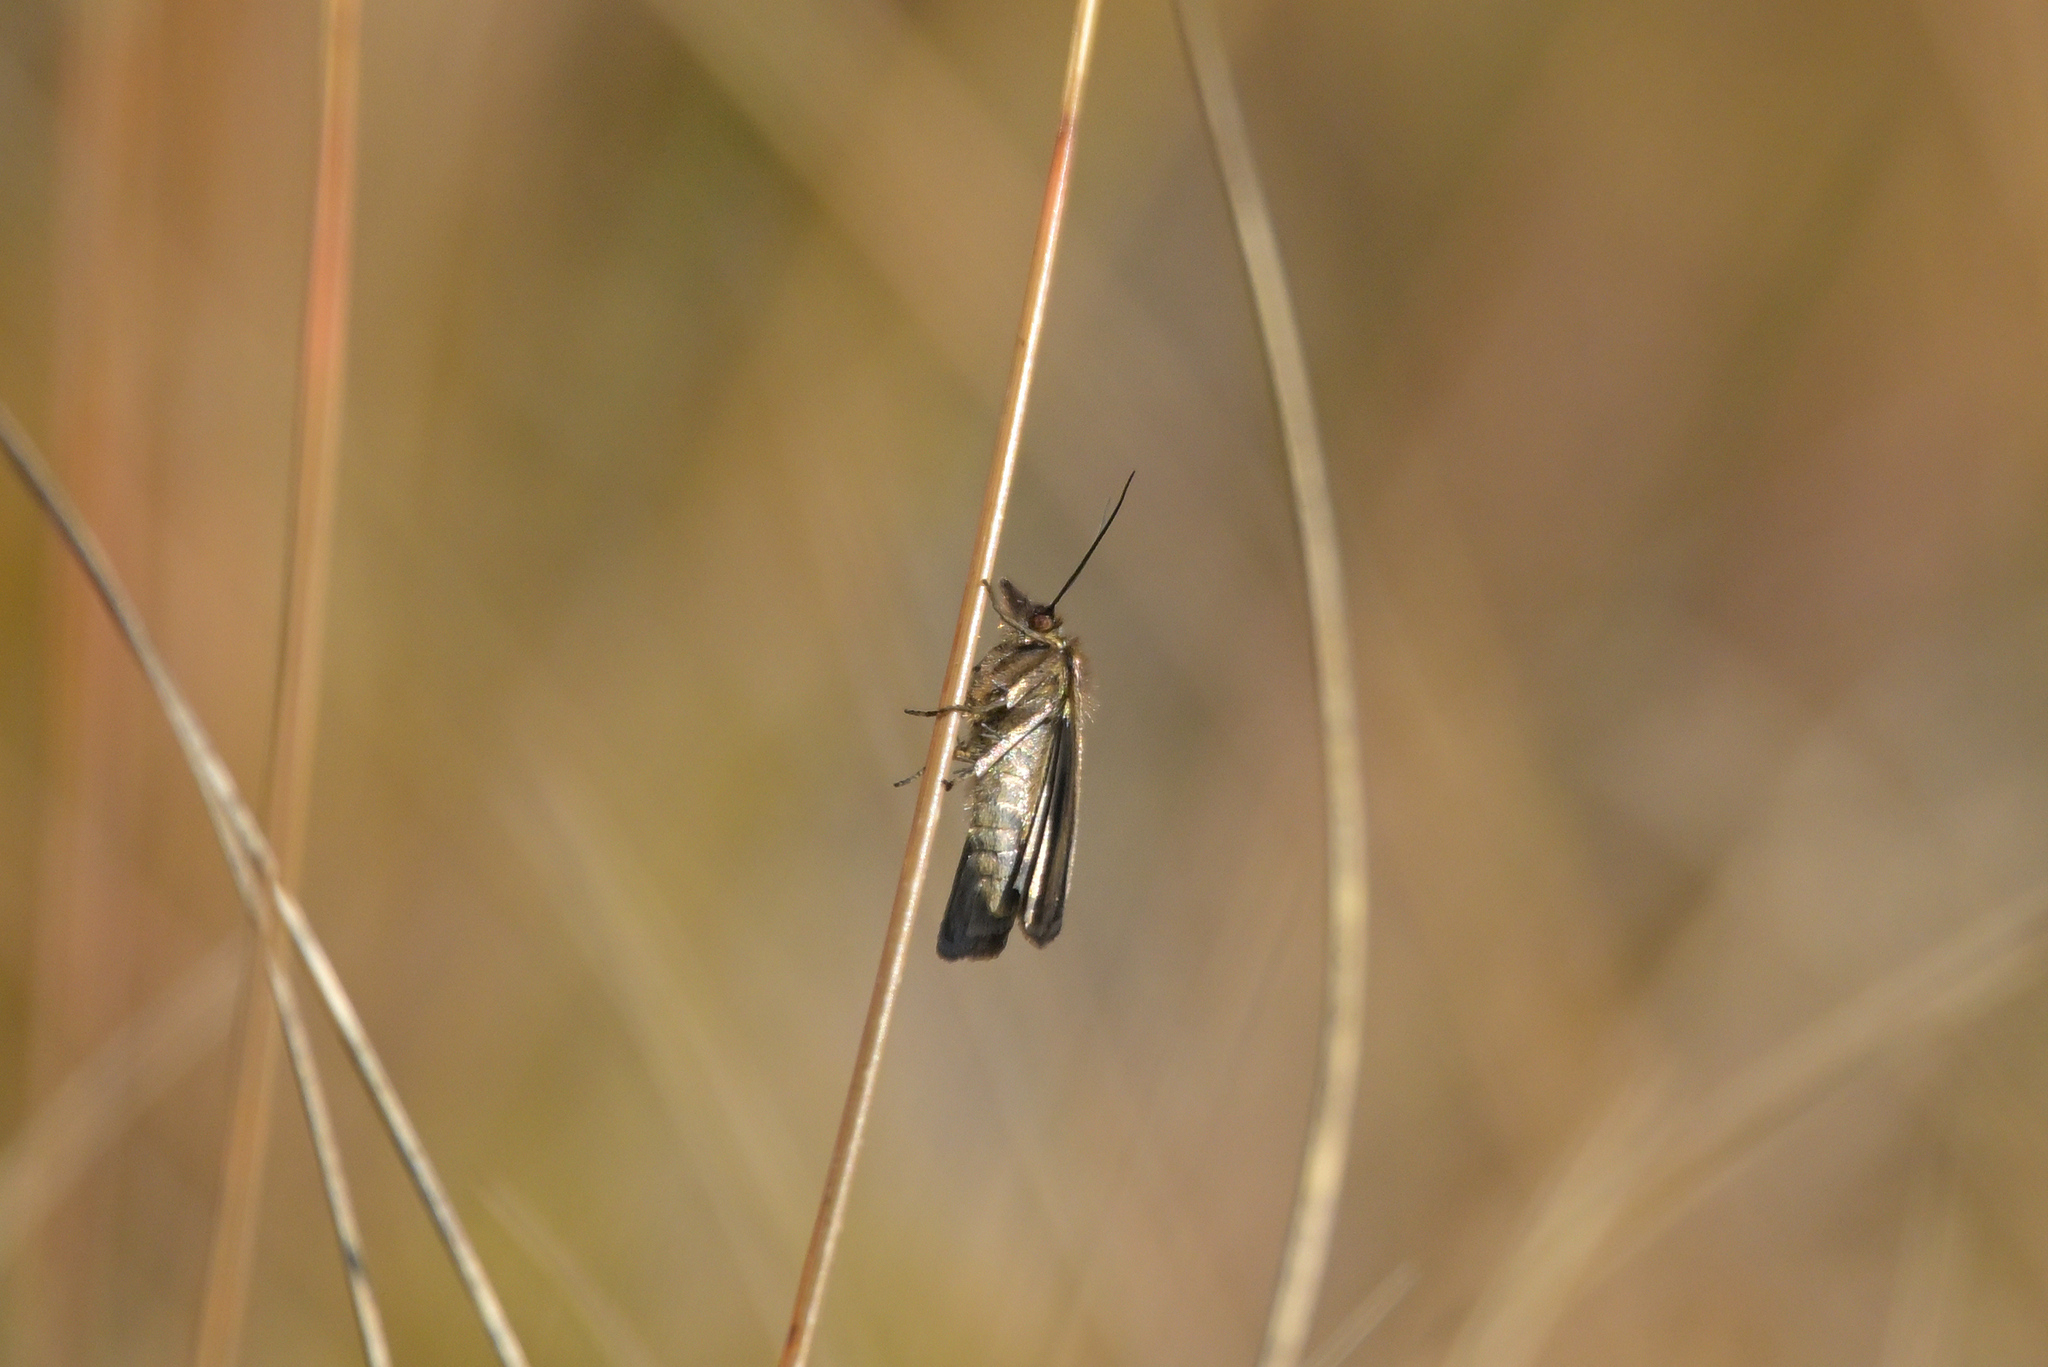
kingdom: Animalia
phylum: Arthropoda
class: Insecta
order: Lepidoptera
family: Crambidae
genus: Orocrambus
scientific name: Orocrambus catacaustus
